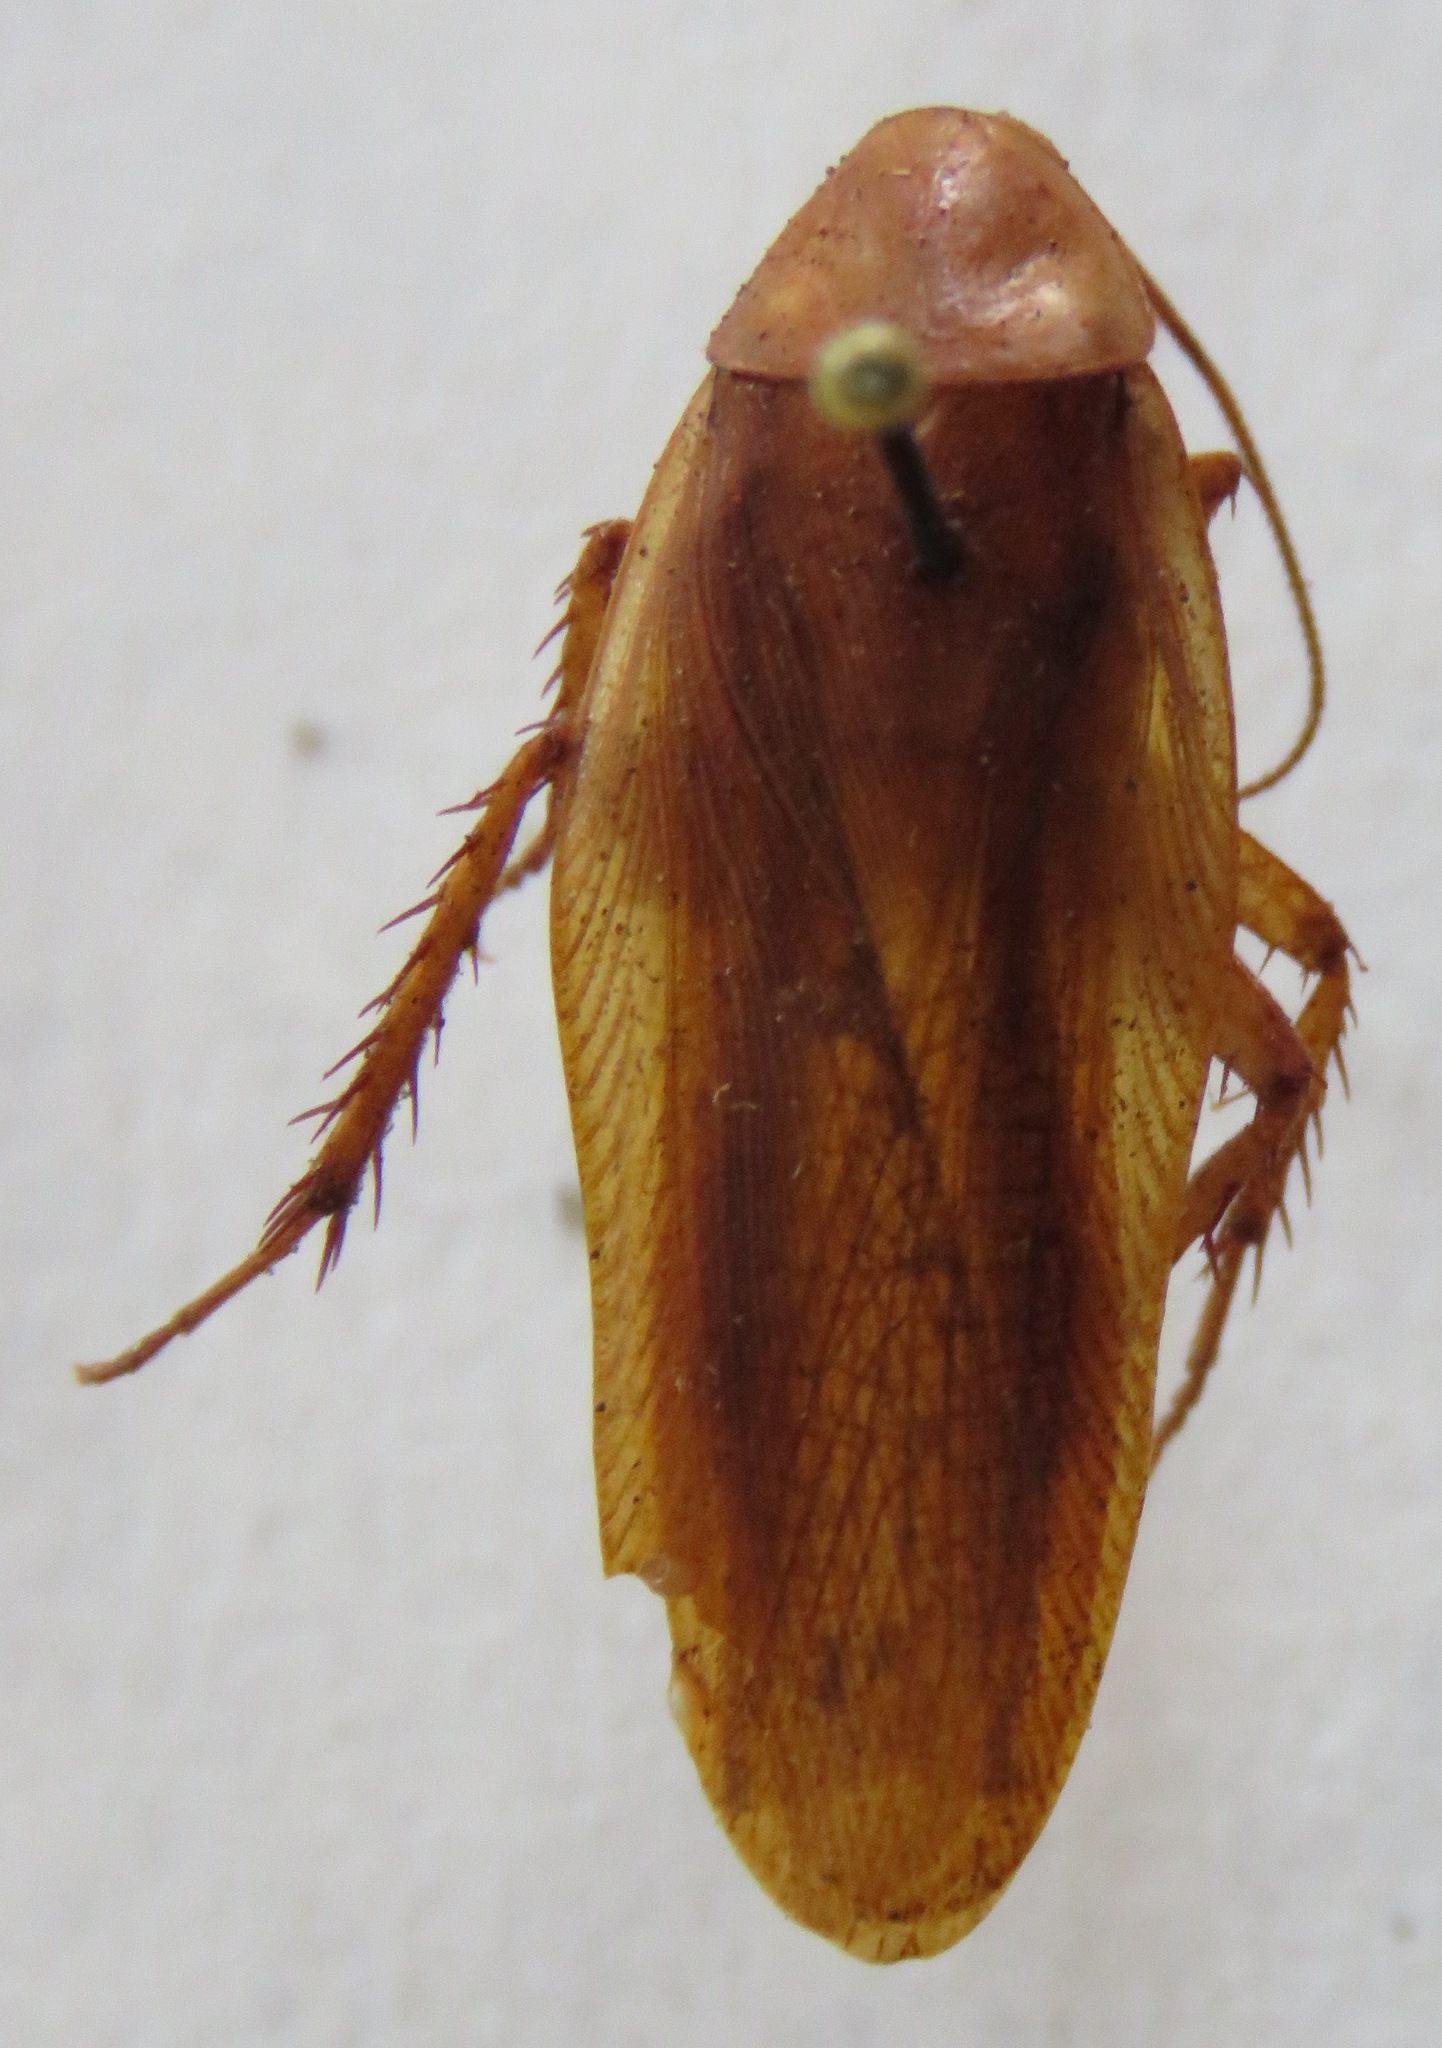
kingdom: Animalia
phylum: Arthropoda
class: Insecta
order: Blattodea
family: Ectobiidae
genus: Ischnoptera
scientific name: Ischnoptera rufa
